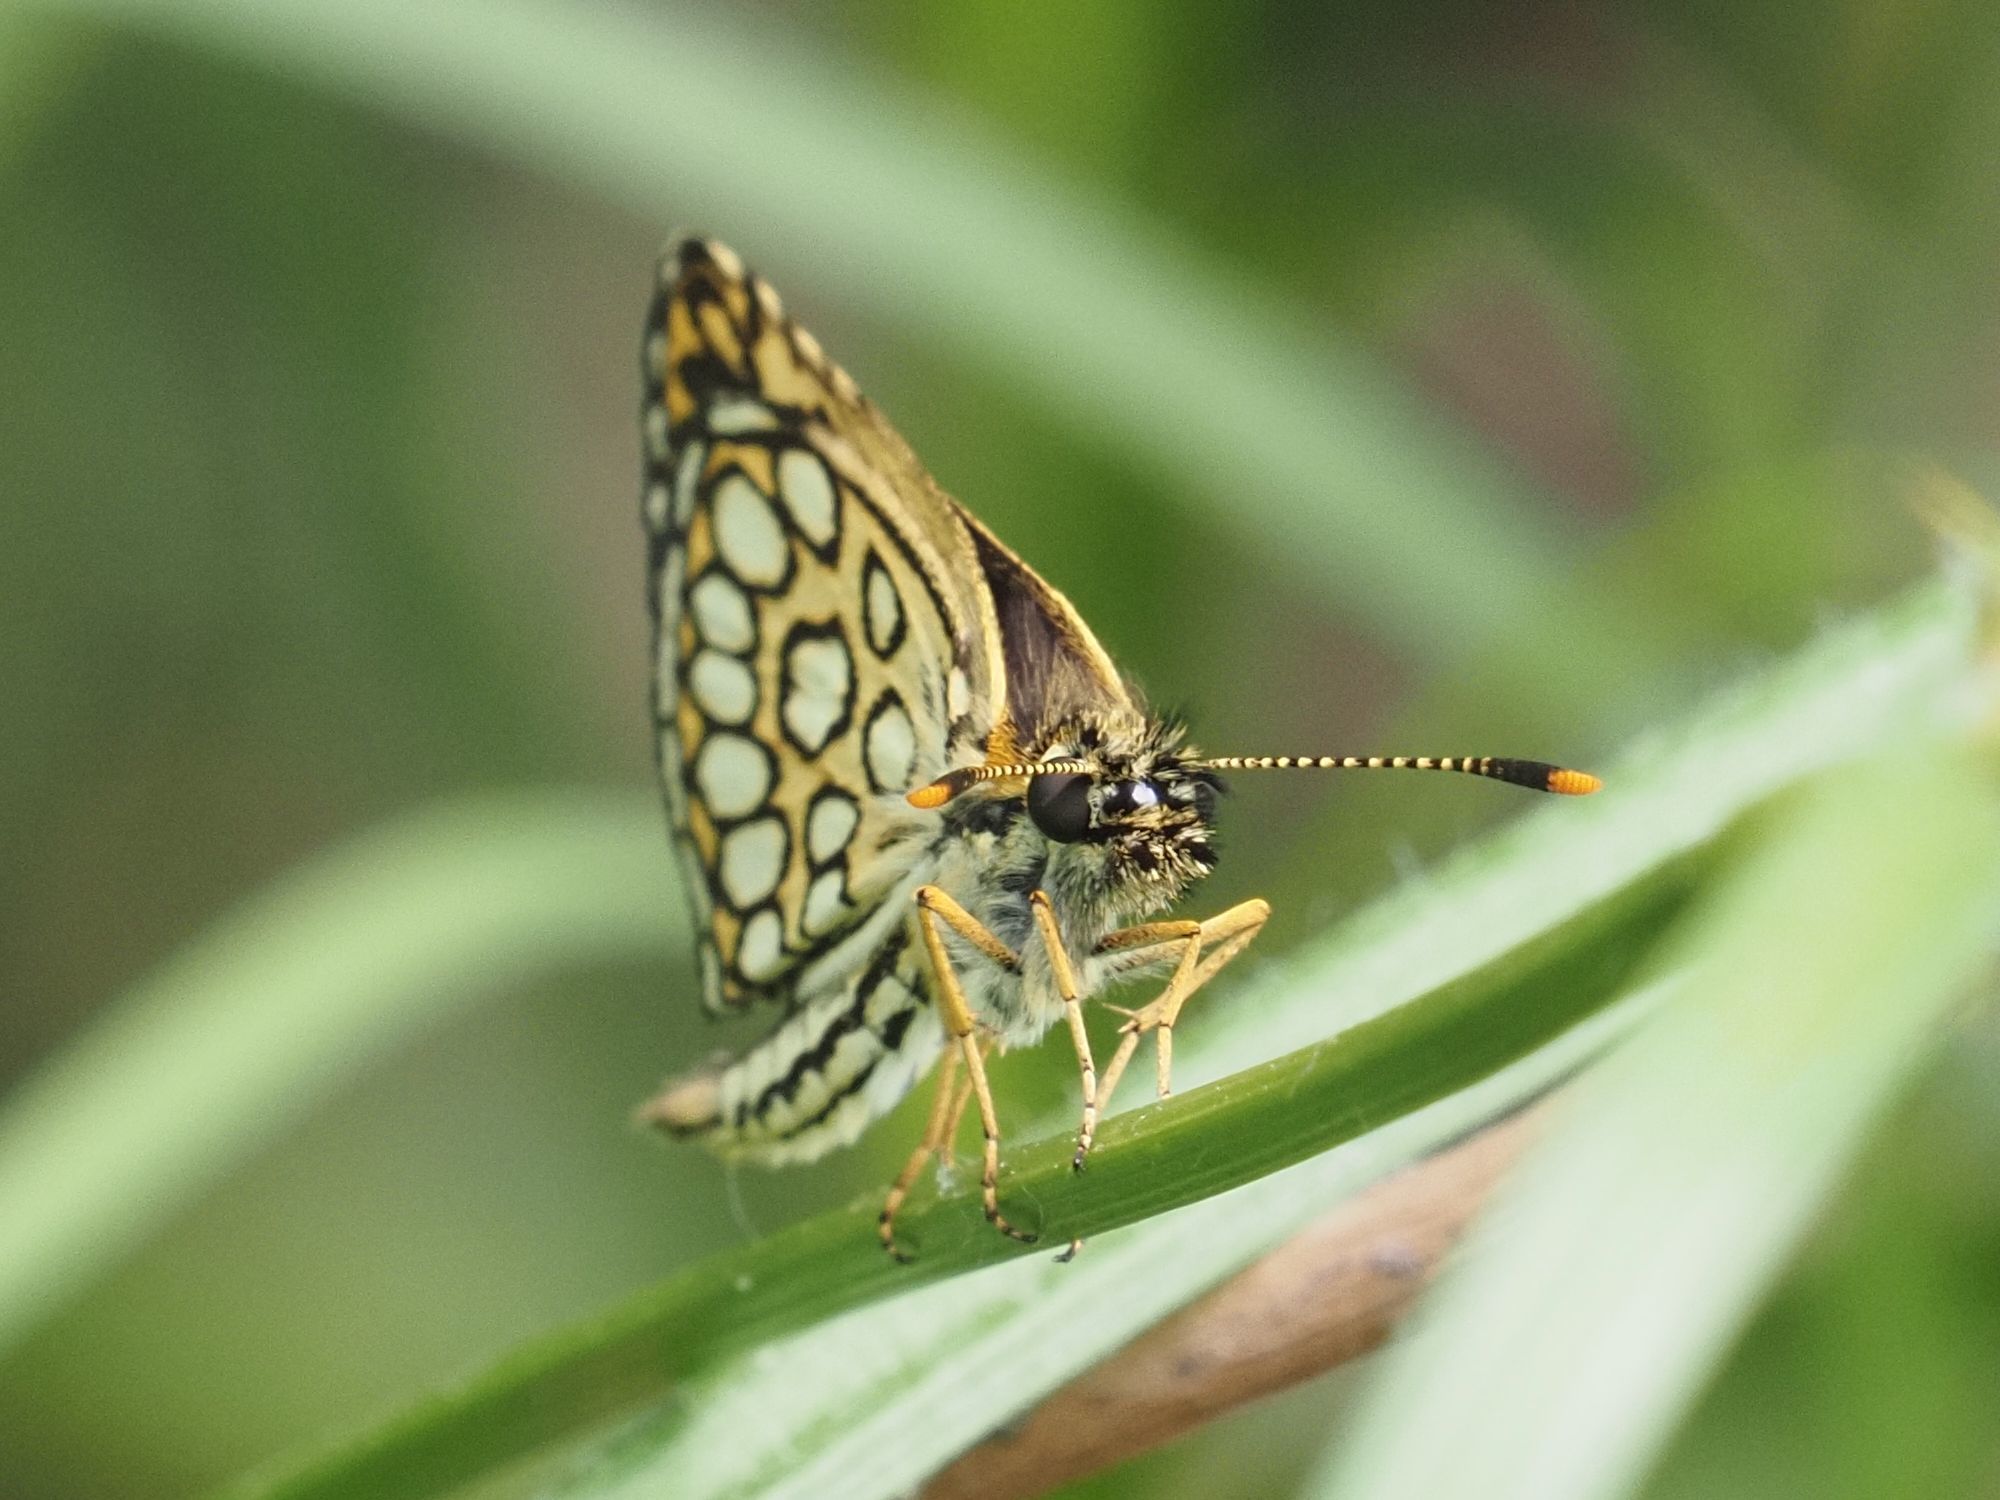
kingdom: Animalia
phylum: Arthropoda
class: Insecta
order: Lepidoptera
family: Hesperiidae
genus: Heteropterus
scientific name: Heteropterus morpheus
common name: Large chequered skipper
